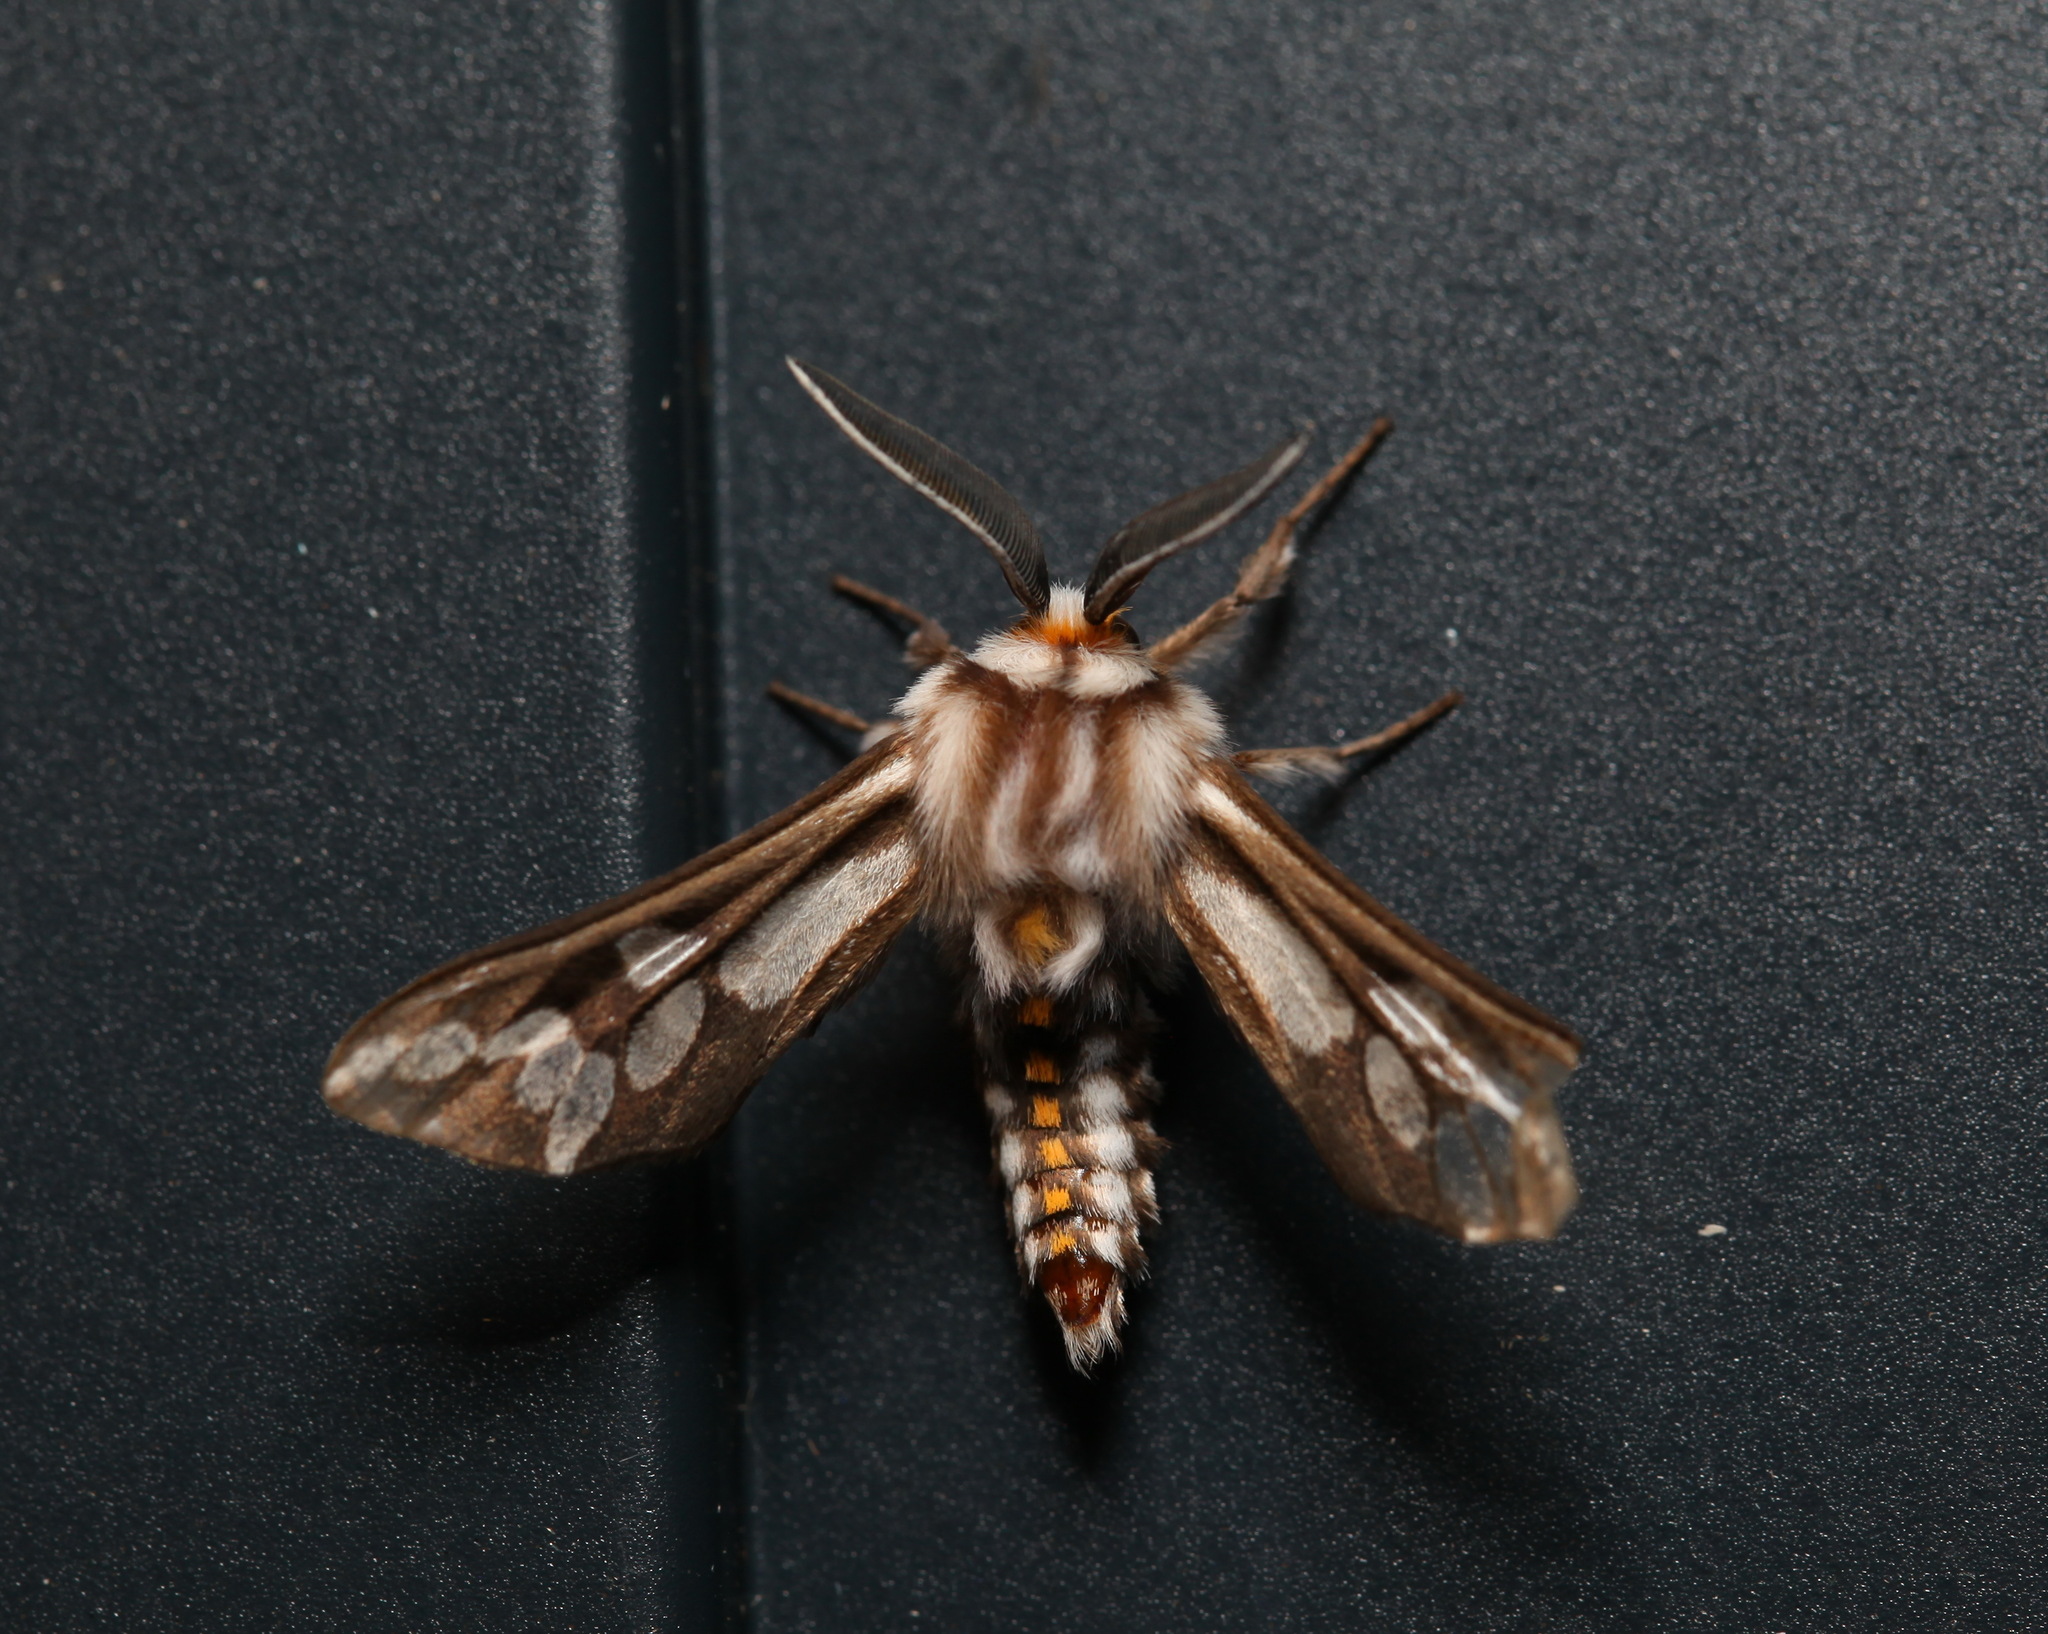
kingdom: Animalia
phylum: Arthropoda
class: Insecta
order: Lepidoptera
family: Erebidae
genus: Thyretes
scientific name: Thyretes hippotes
